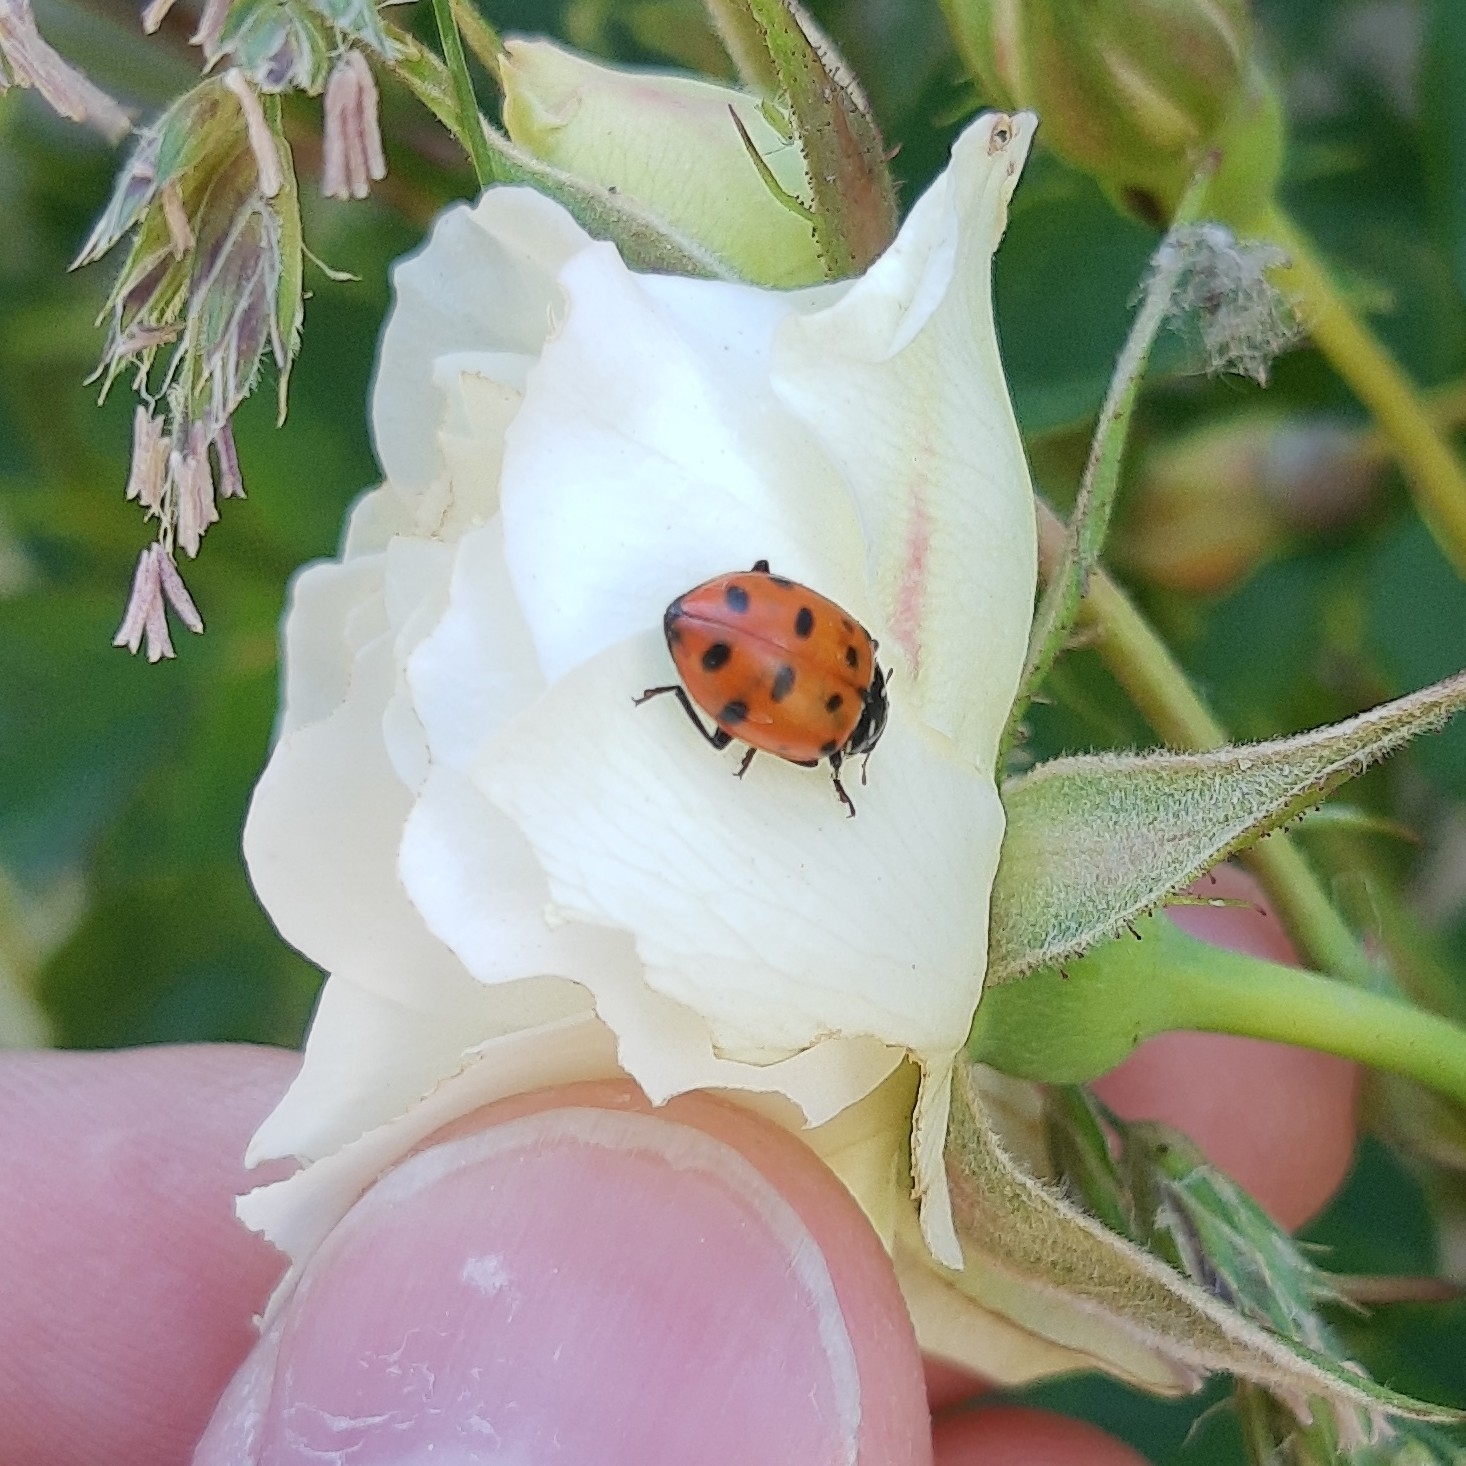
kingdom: Animalia
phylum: Arthropoda
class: Insecta
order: Coleoptera
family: Coccinellidae
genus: Hippodamia
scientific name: Hippodamia convergens
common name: Convergent lady beetle
